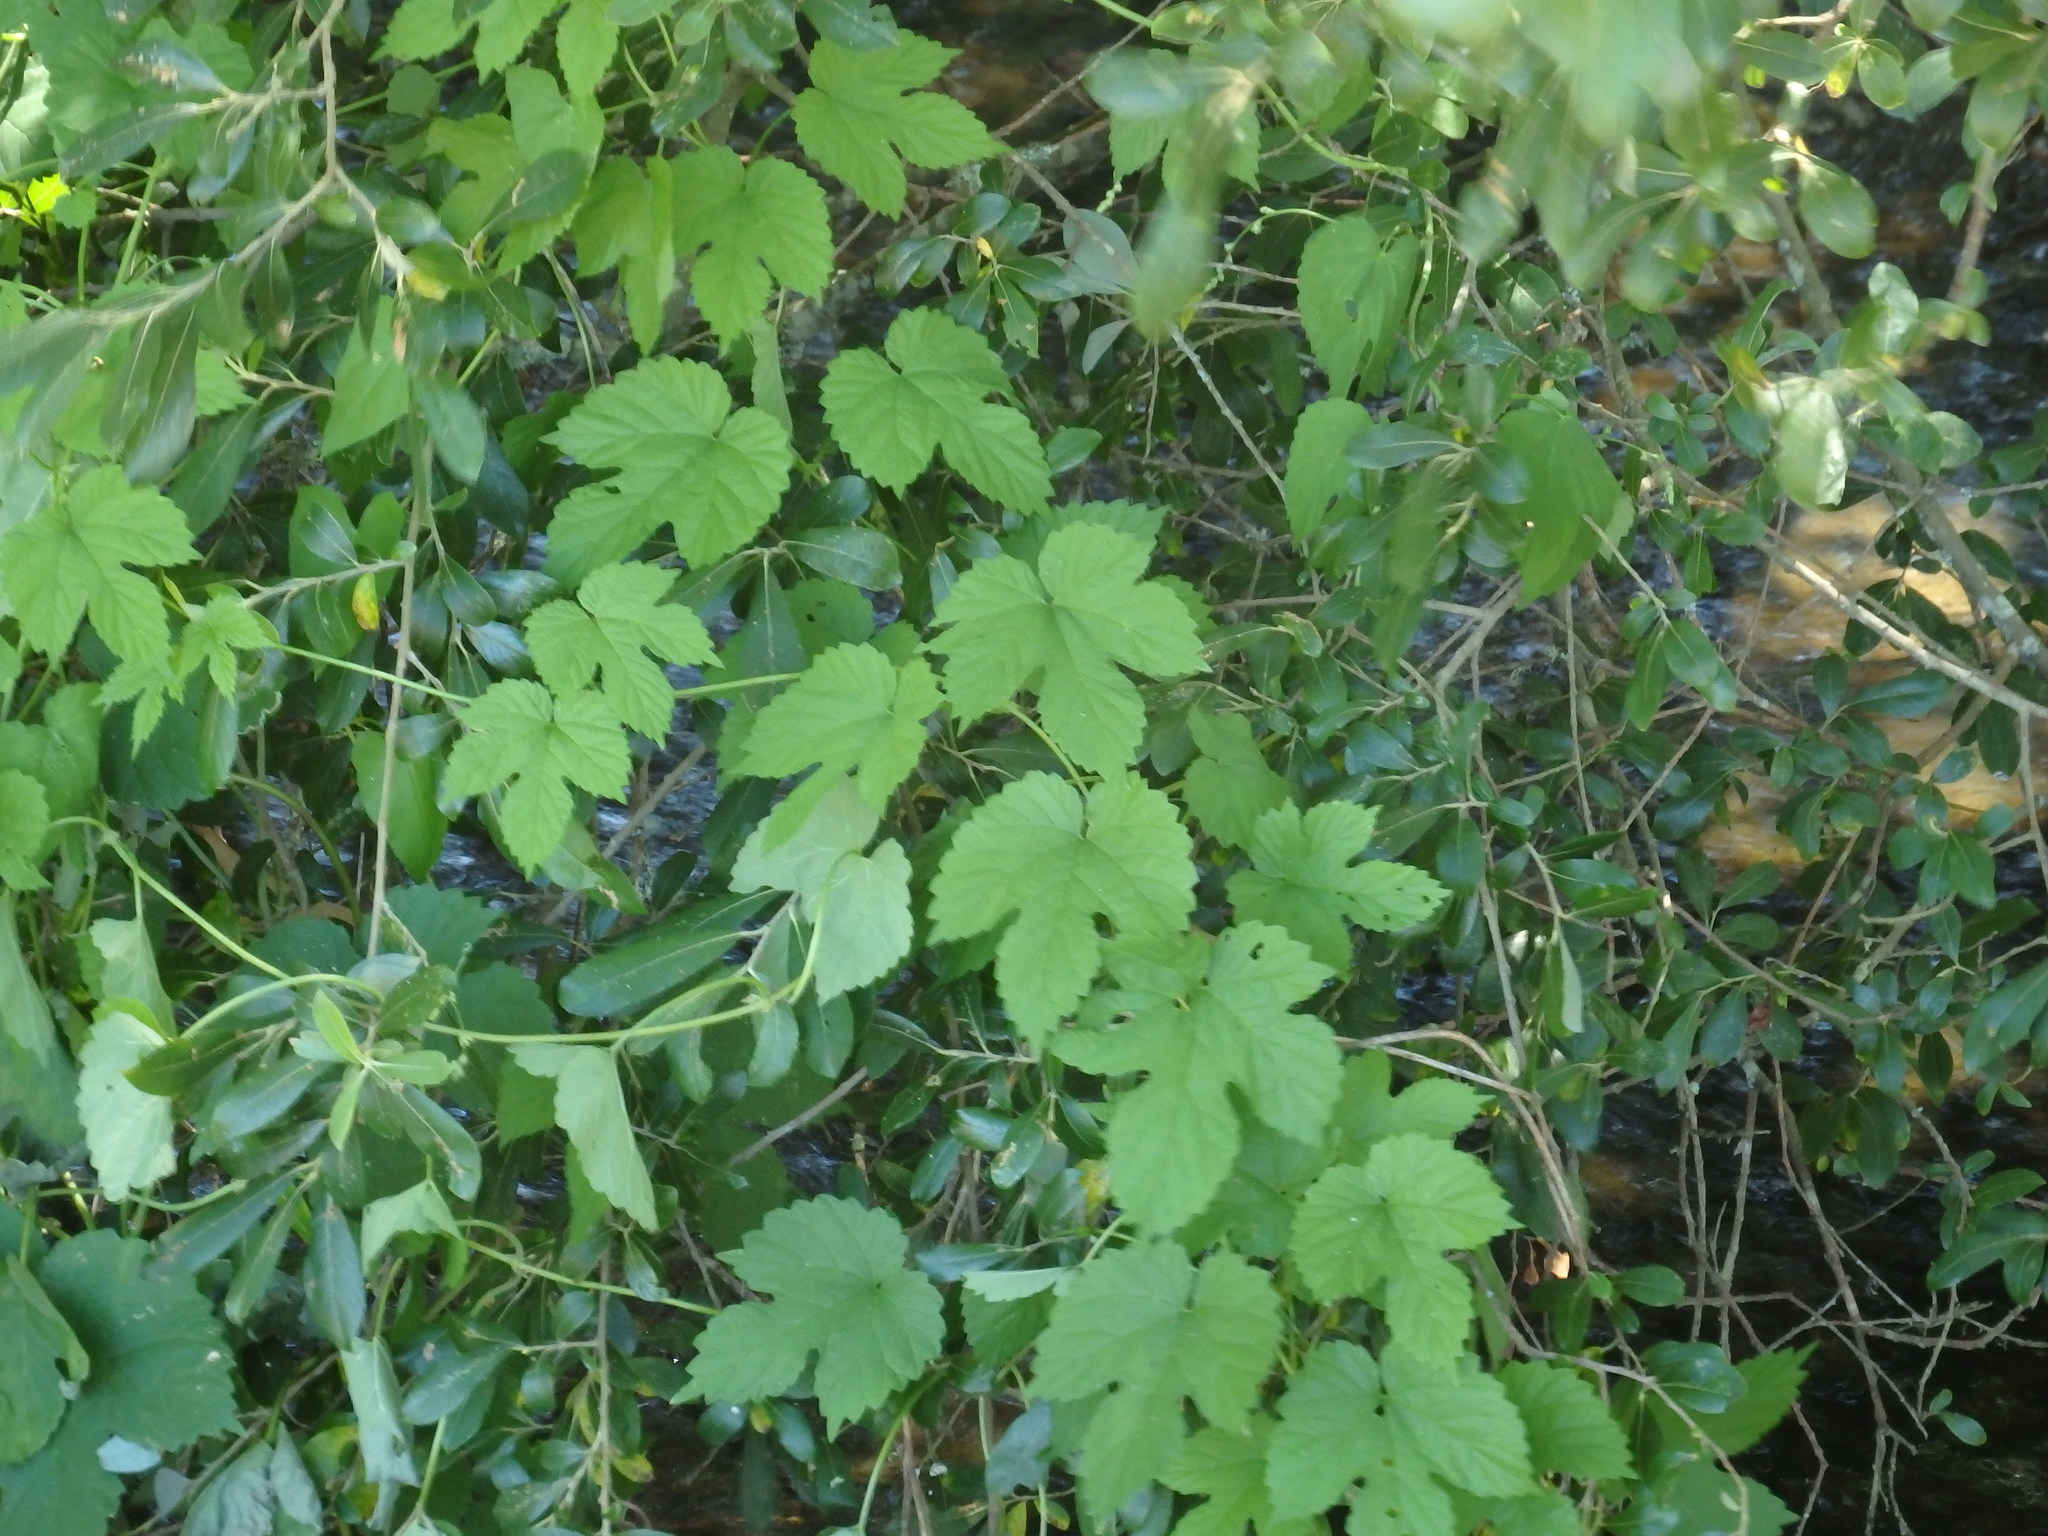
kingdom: Plantae
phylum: Tracheophyta
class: Magnoliopsida
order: Rosales
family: Cannabaceae
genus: Humulus
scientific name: Humulus lupulus
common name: Hop
